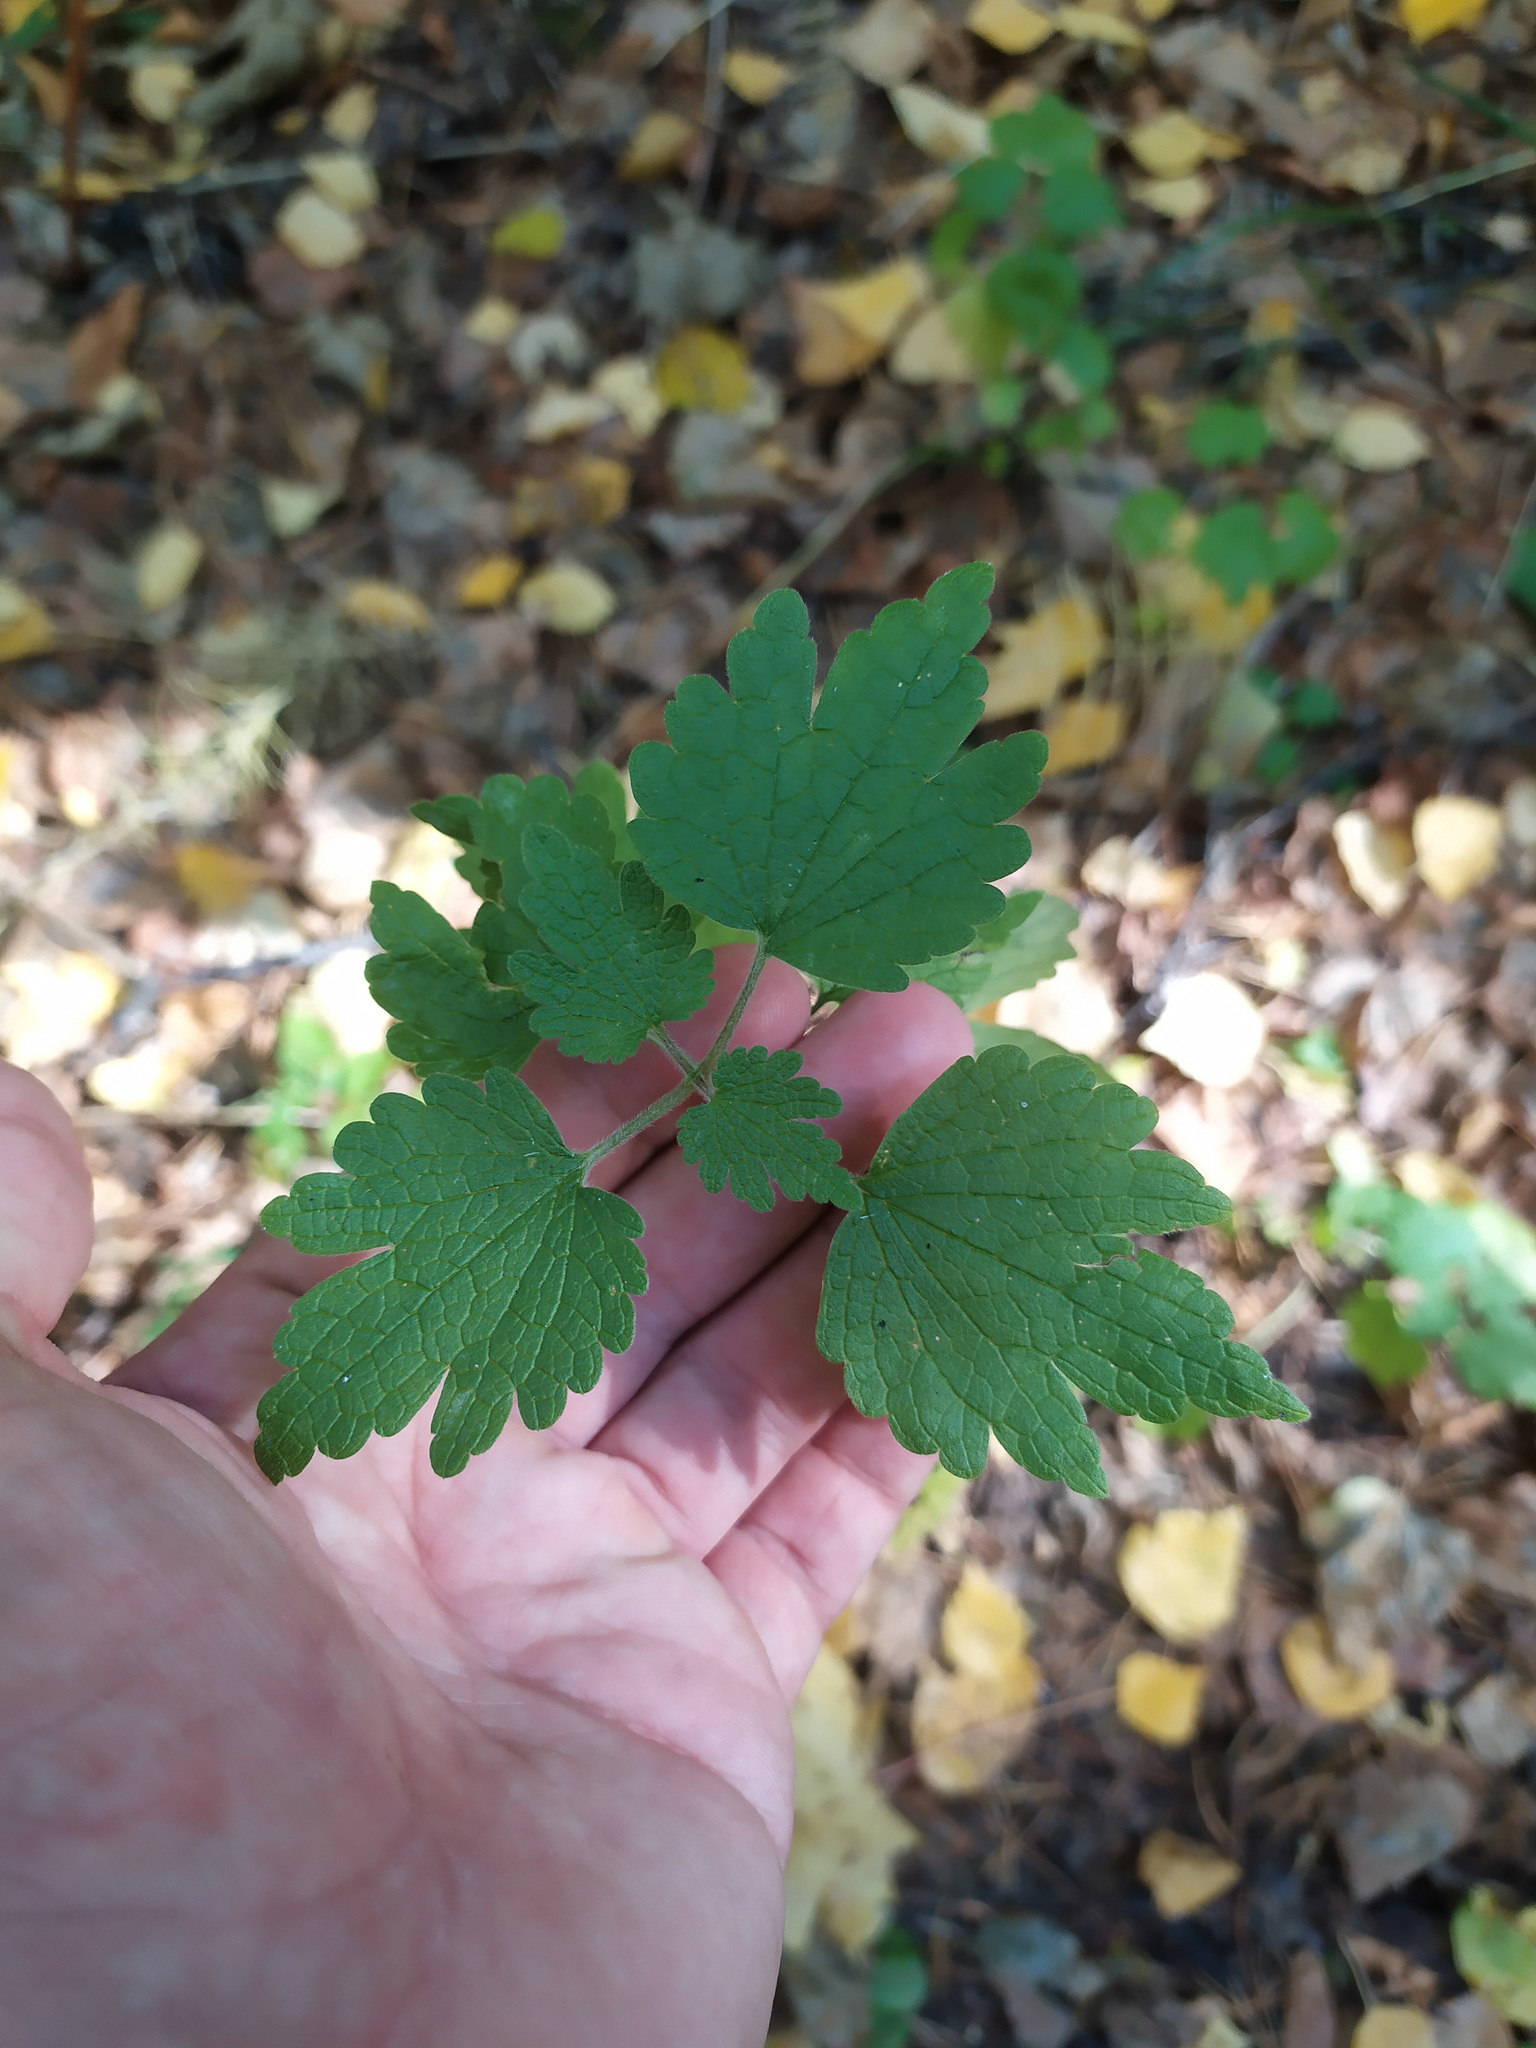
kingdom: Plantae
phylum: Tracheophyta
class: Magnoliopsida
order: Lamiales
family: Lamiaceae
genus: Leonurus
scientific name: Leonurus quinquelobatus
